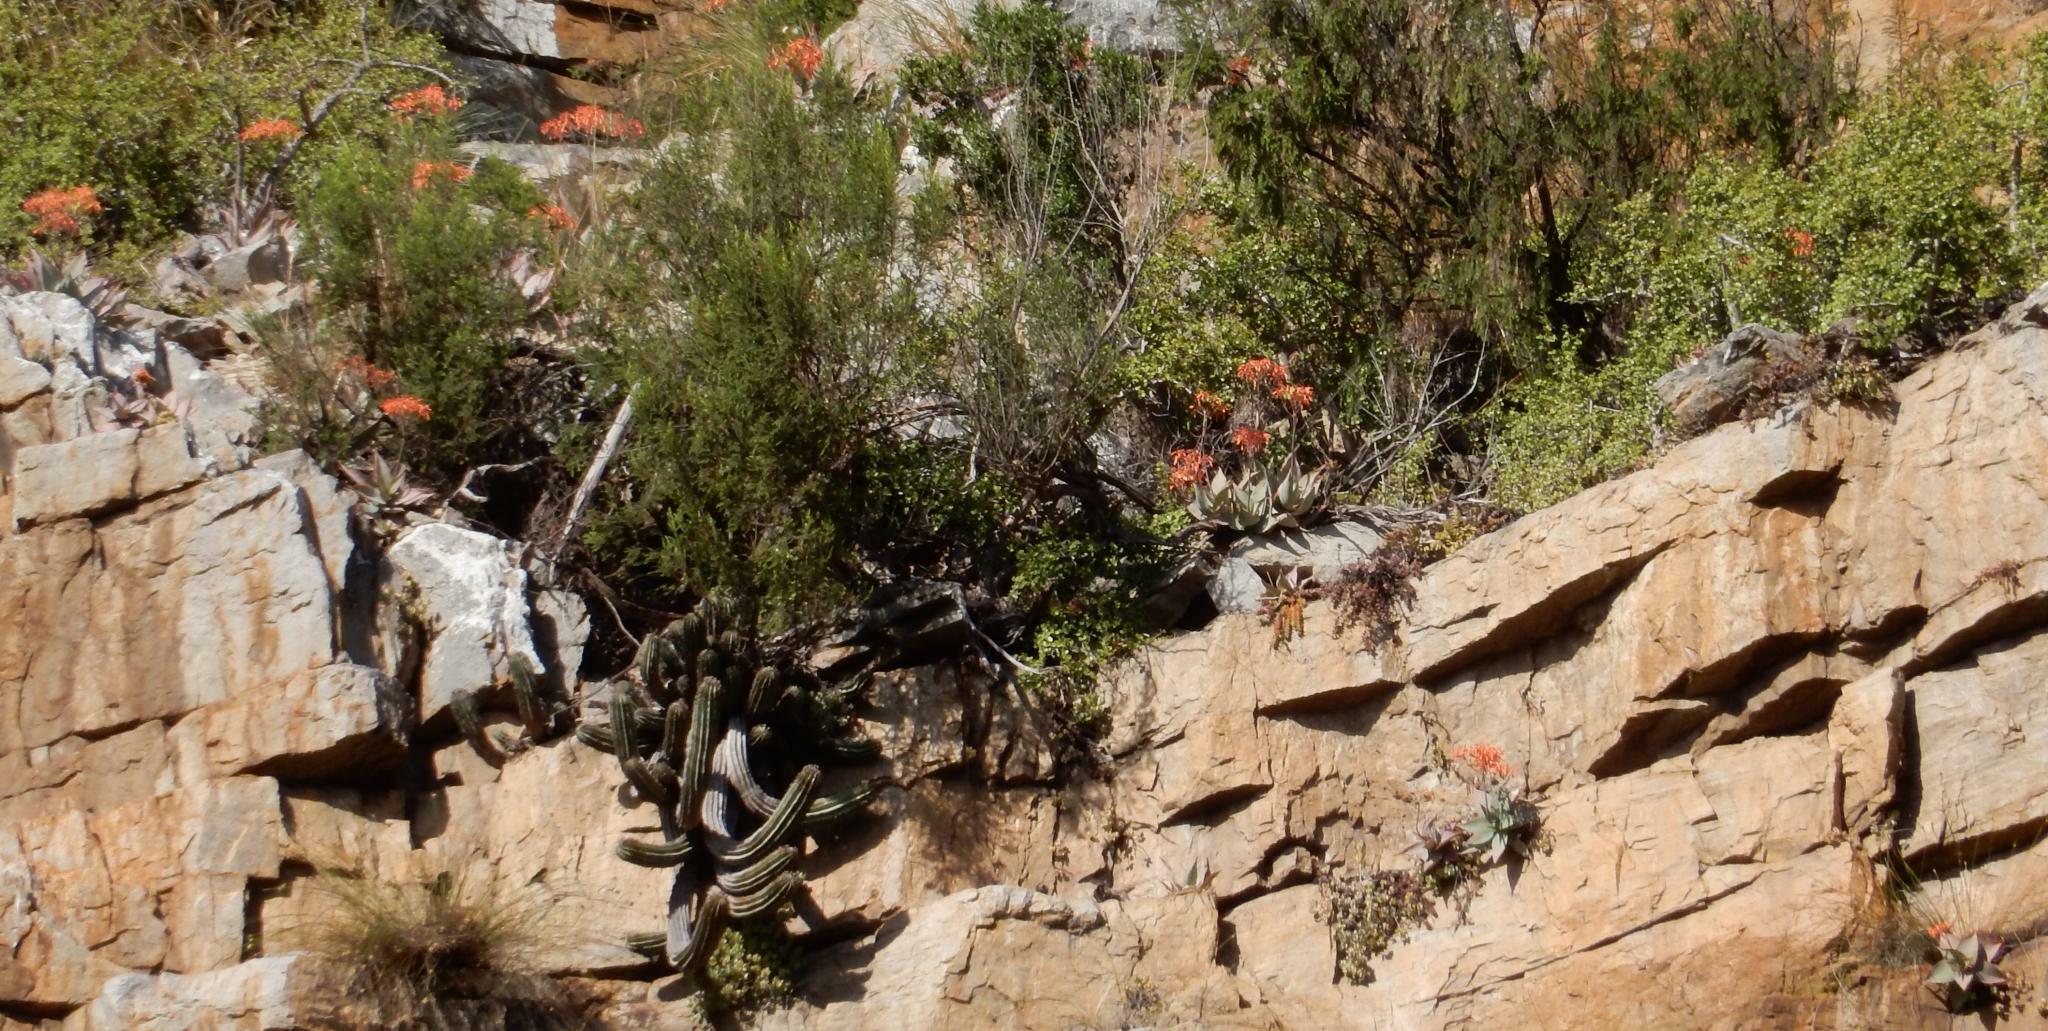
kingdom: Plantae
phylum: Tracheophyta
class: Liliopsida
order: Asparagales
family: Asphodelaceae
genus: Aloe
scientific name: Aloe striata
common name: Coral aloe
